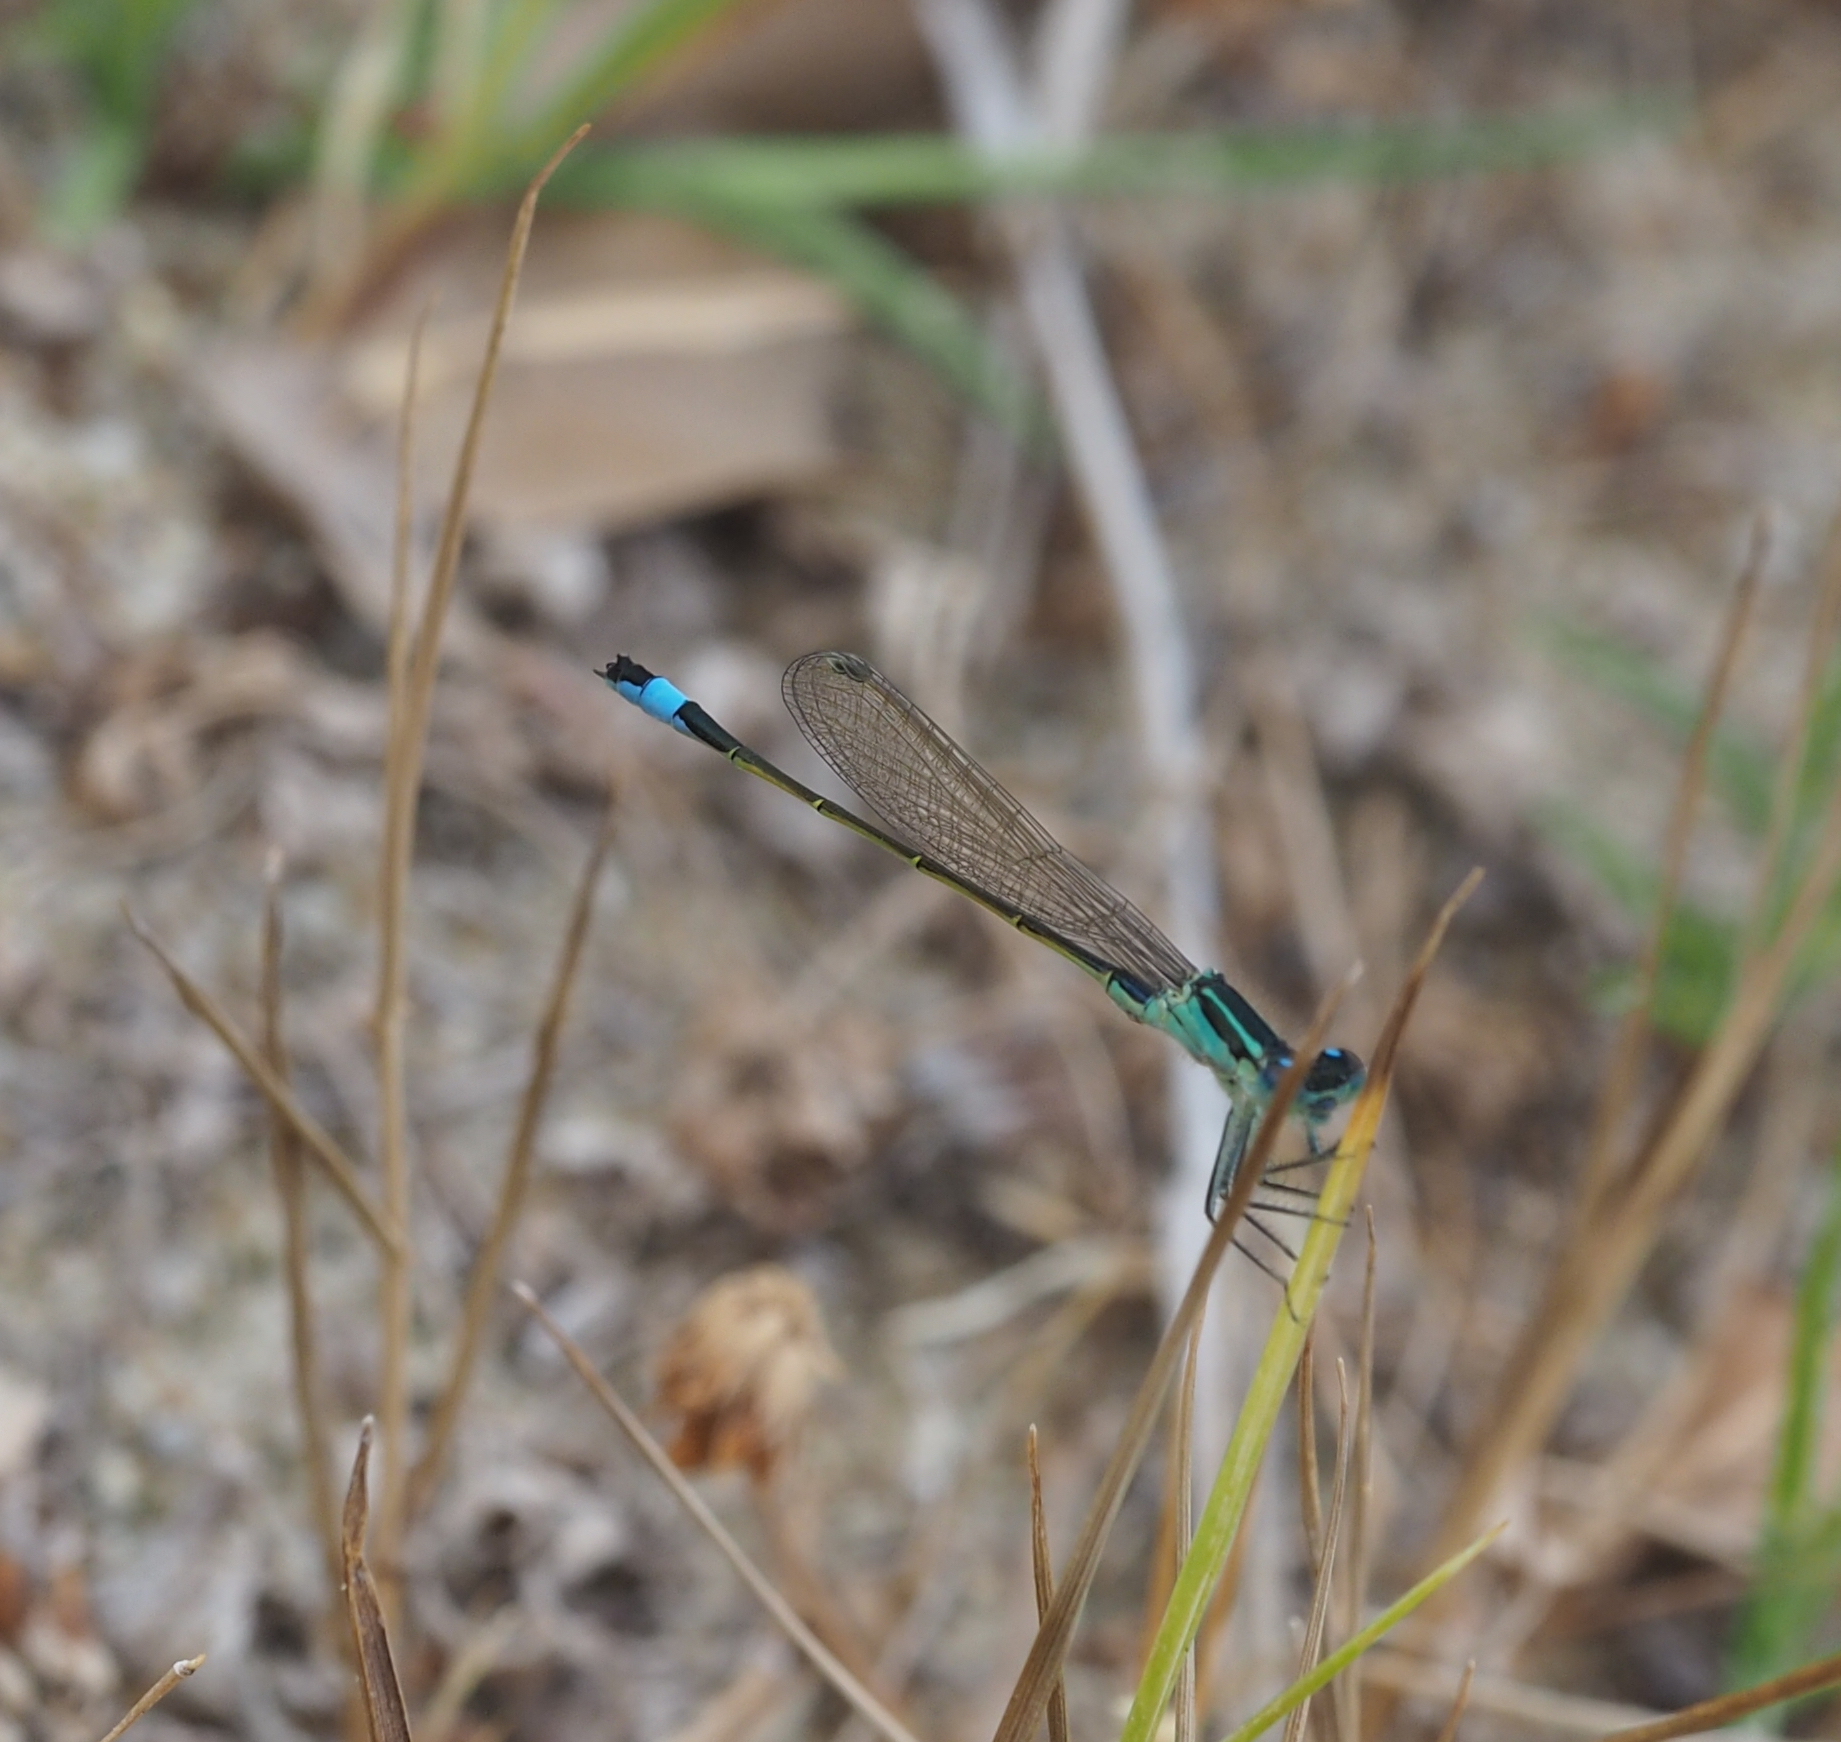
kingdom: Animalia
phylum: Arthropoda
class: Insecta
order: Odonata
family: Coenagrionidae
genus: Ischnura
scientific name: Ischnura elegans
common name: Blue-tailed damselfly
